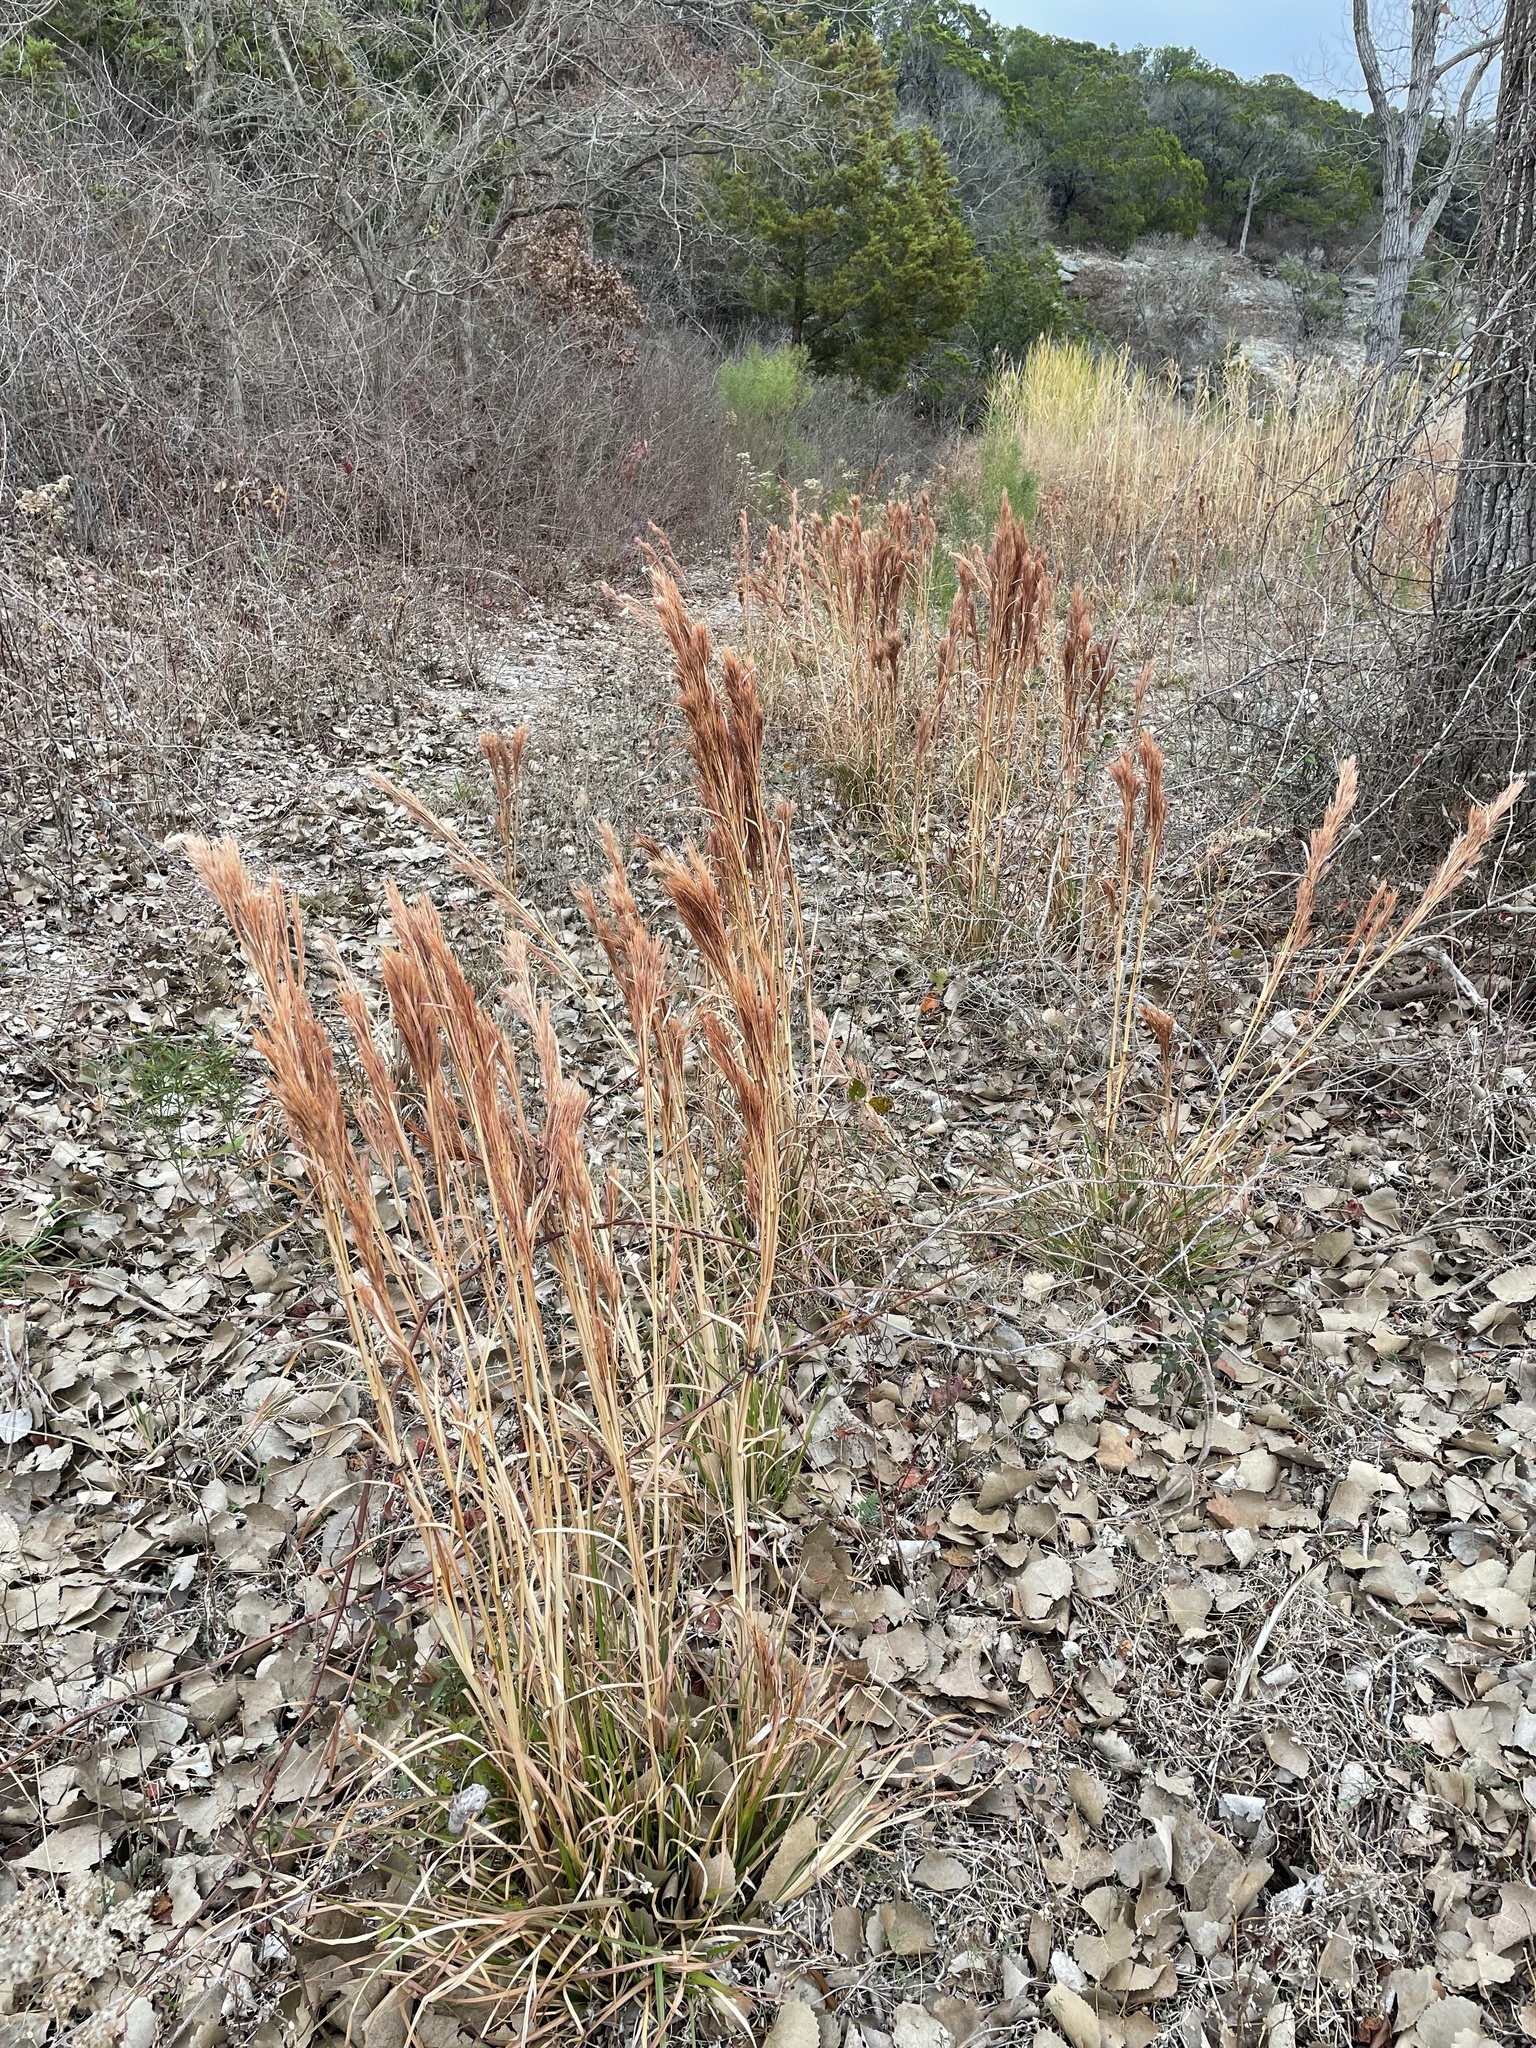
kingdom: Plantae
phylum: Tracheophyta
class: Liliopsida
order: Poales
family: Poaceae
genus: Andropogon
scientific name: Andropogon tenuispatheus
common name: Bushy bluestem
